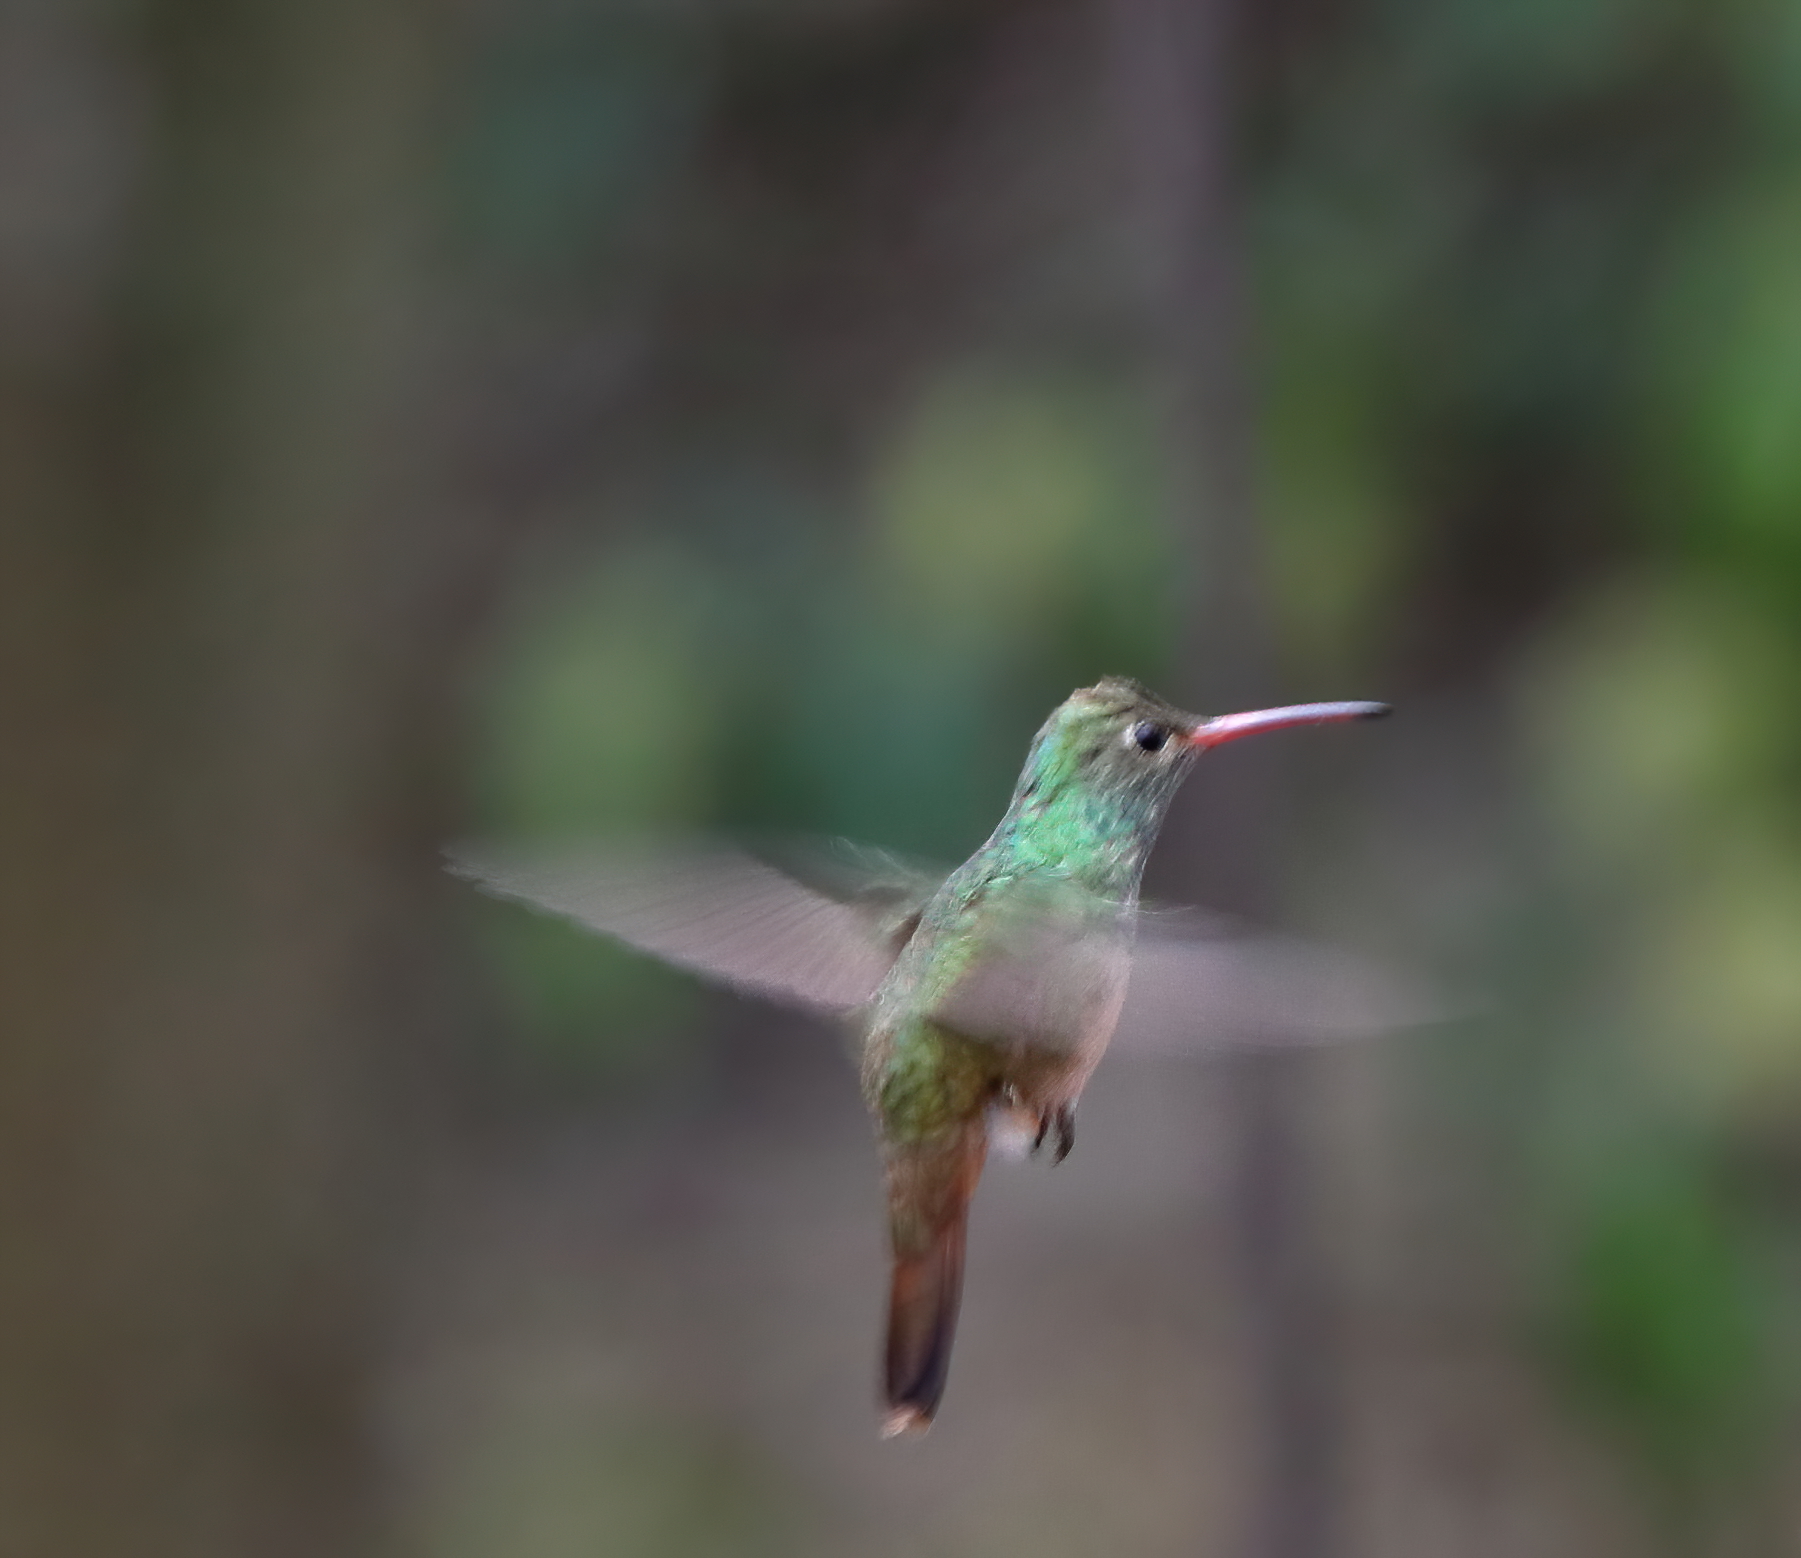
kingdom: Animalia
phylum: Chordata
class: Aves
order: Apodiformes
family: Trochilidae
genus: Amazilia
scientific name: Amazilia yucatanensis
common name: Buff-bellied hummingbird
